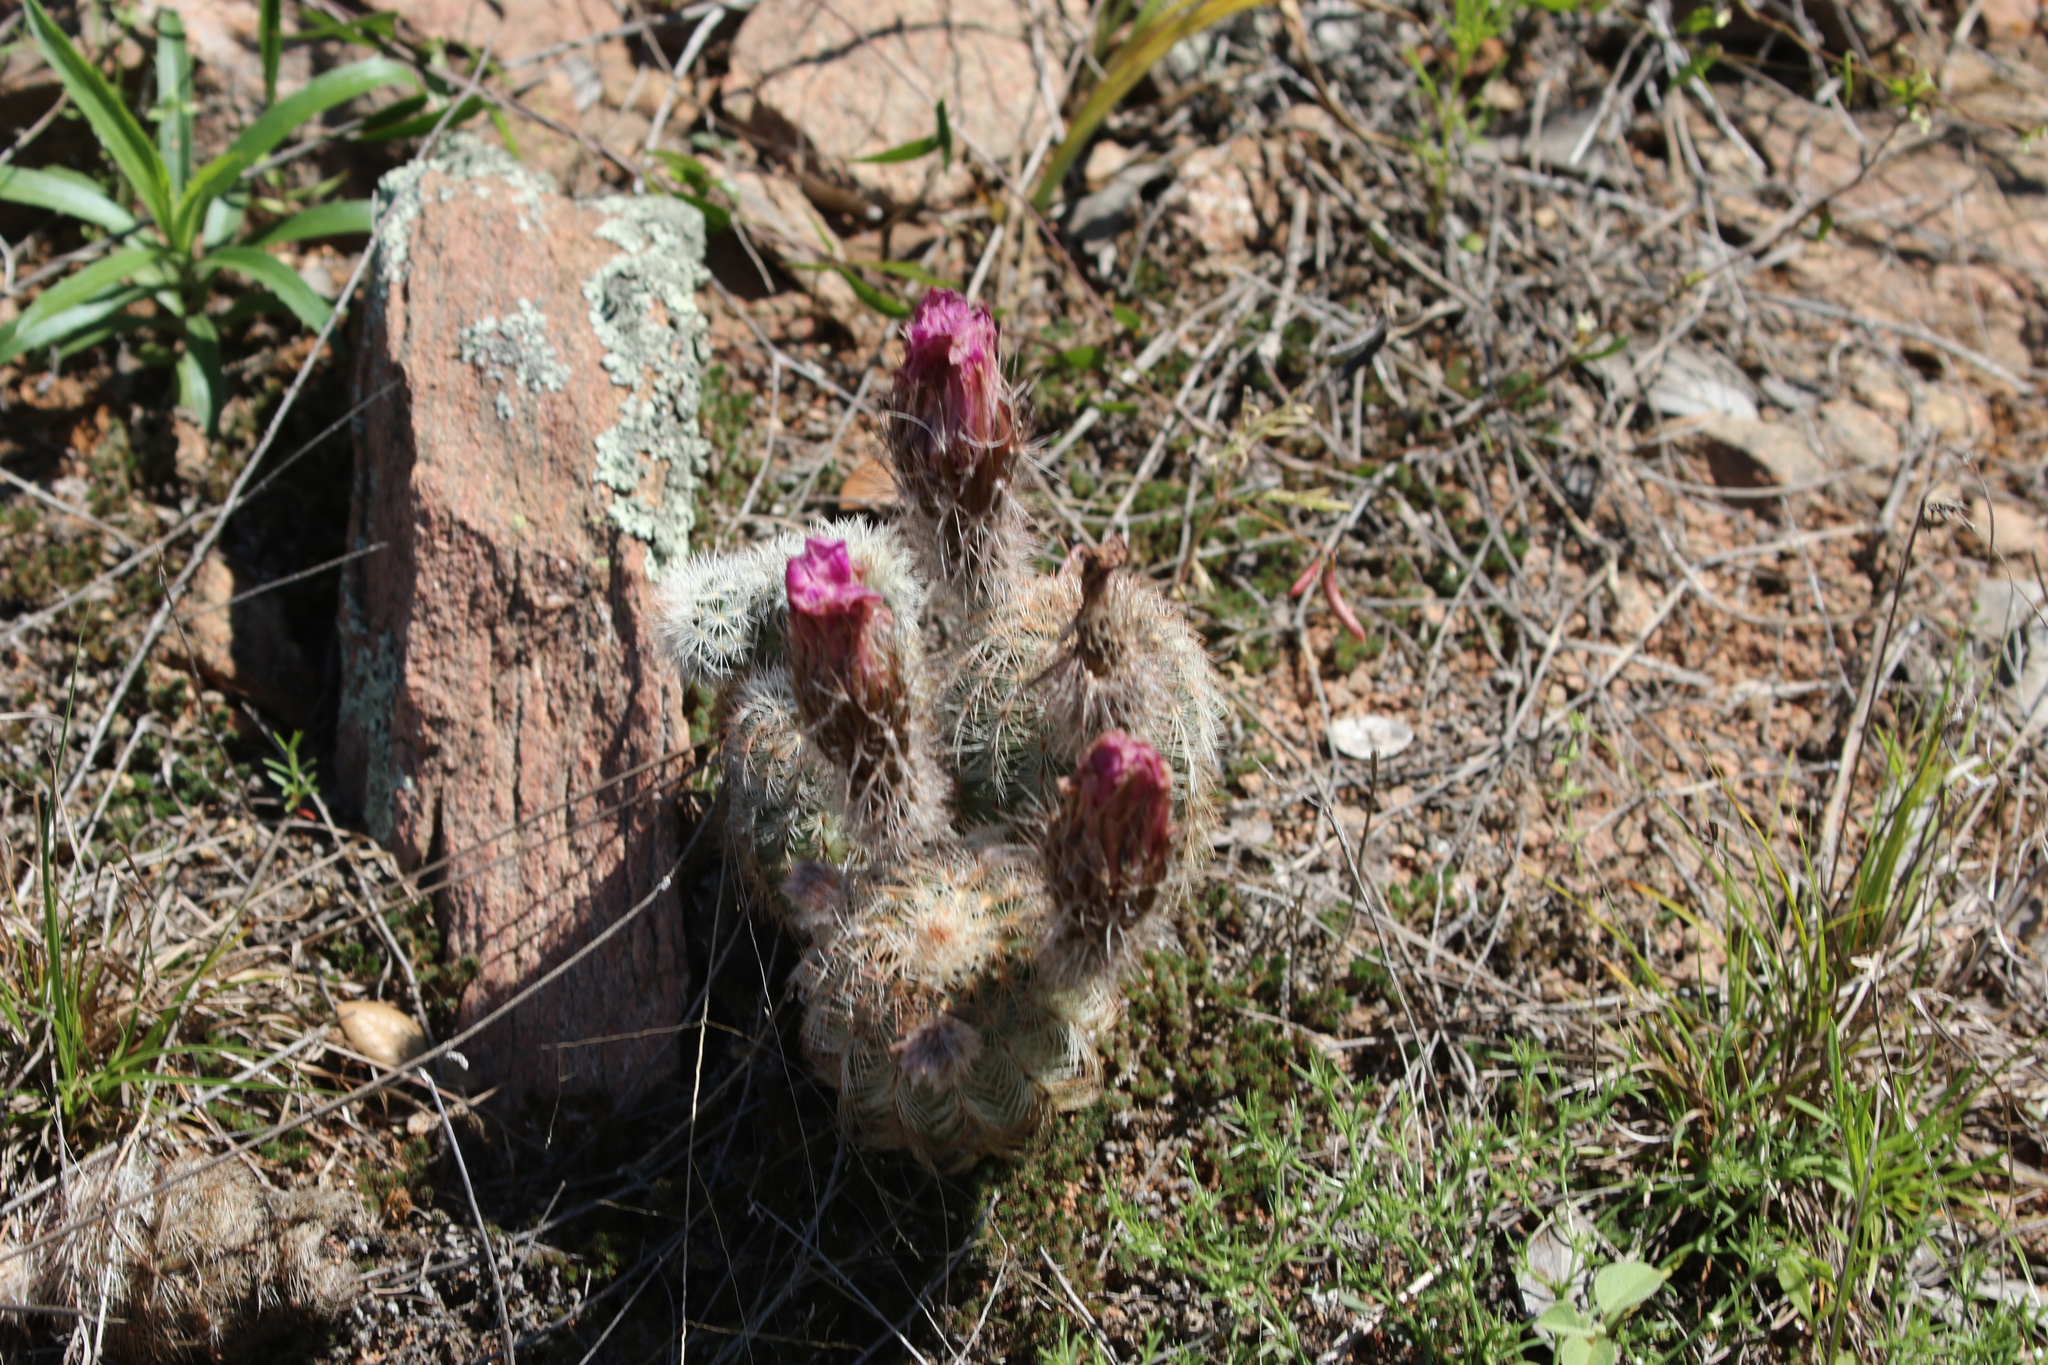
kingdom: Plantae
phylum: Tracheophyta
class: Magnoliopsida
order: Caryophyllales
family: Cactaceae
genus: Echinocereus
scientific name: Echinocereus reichenbachii
